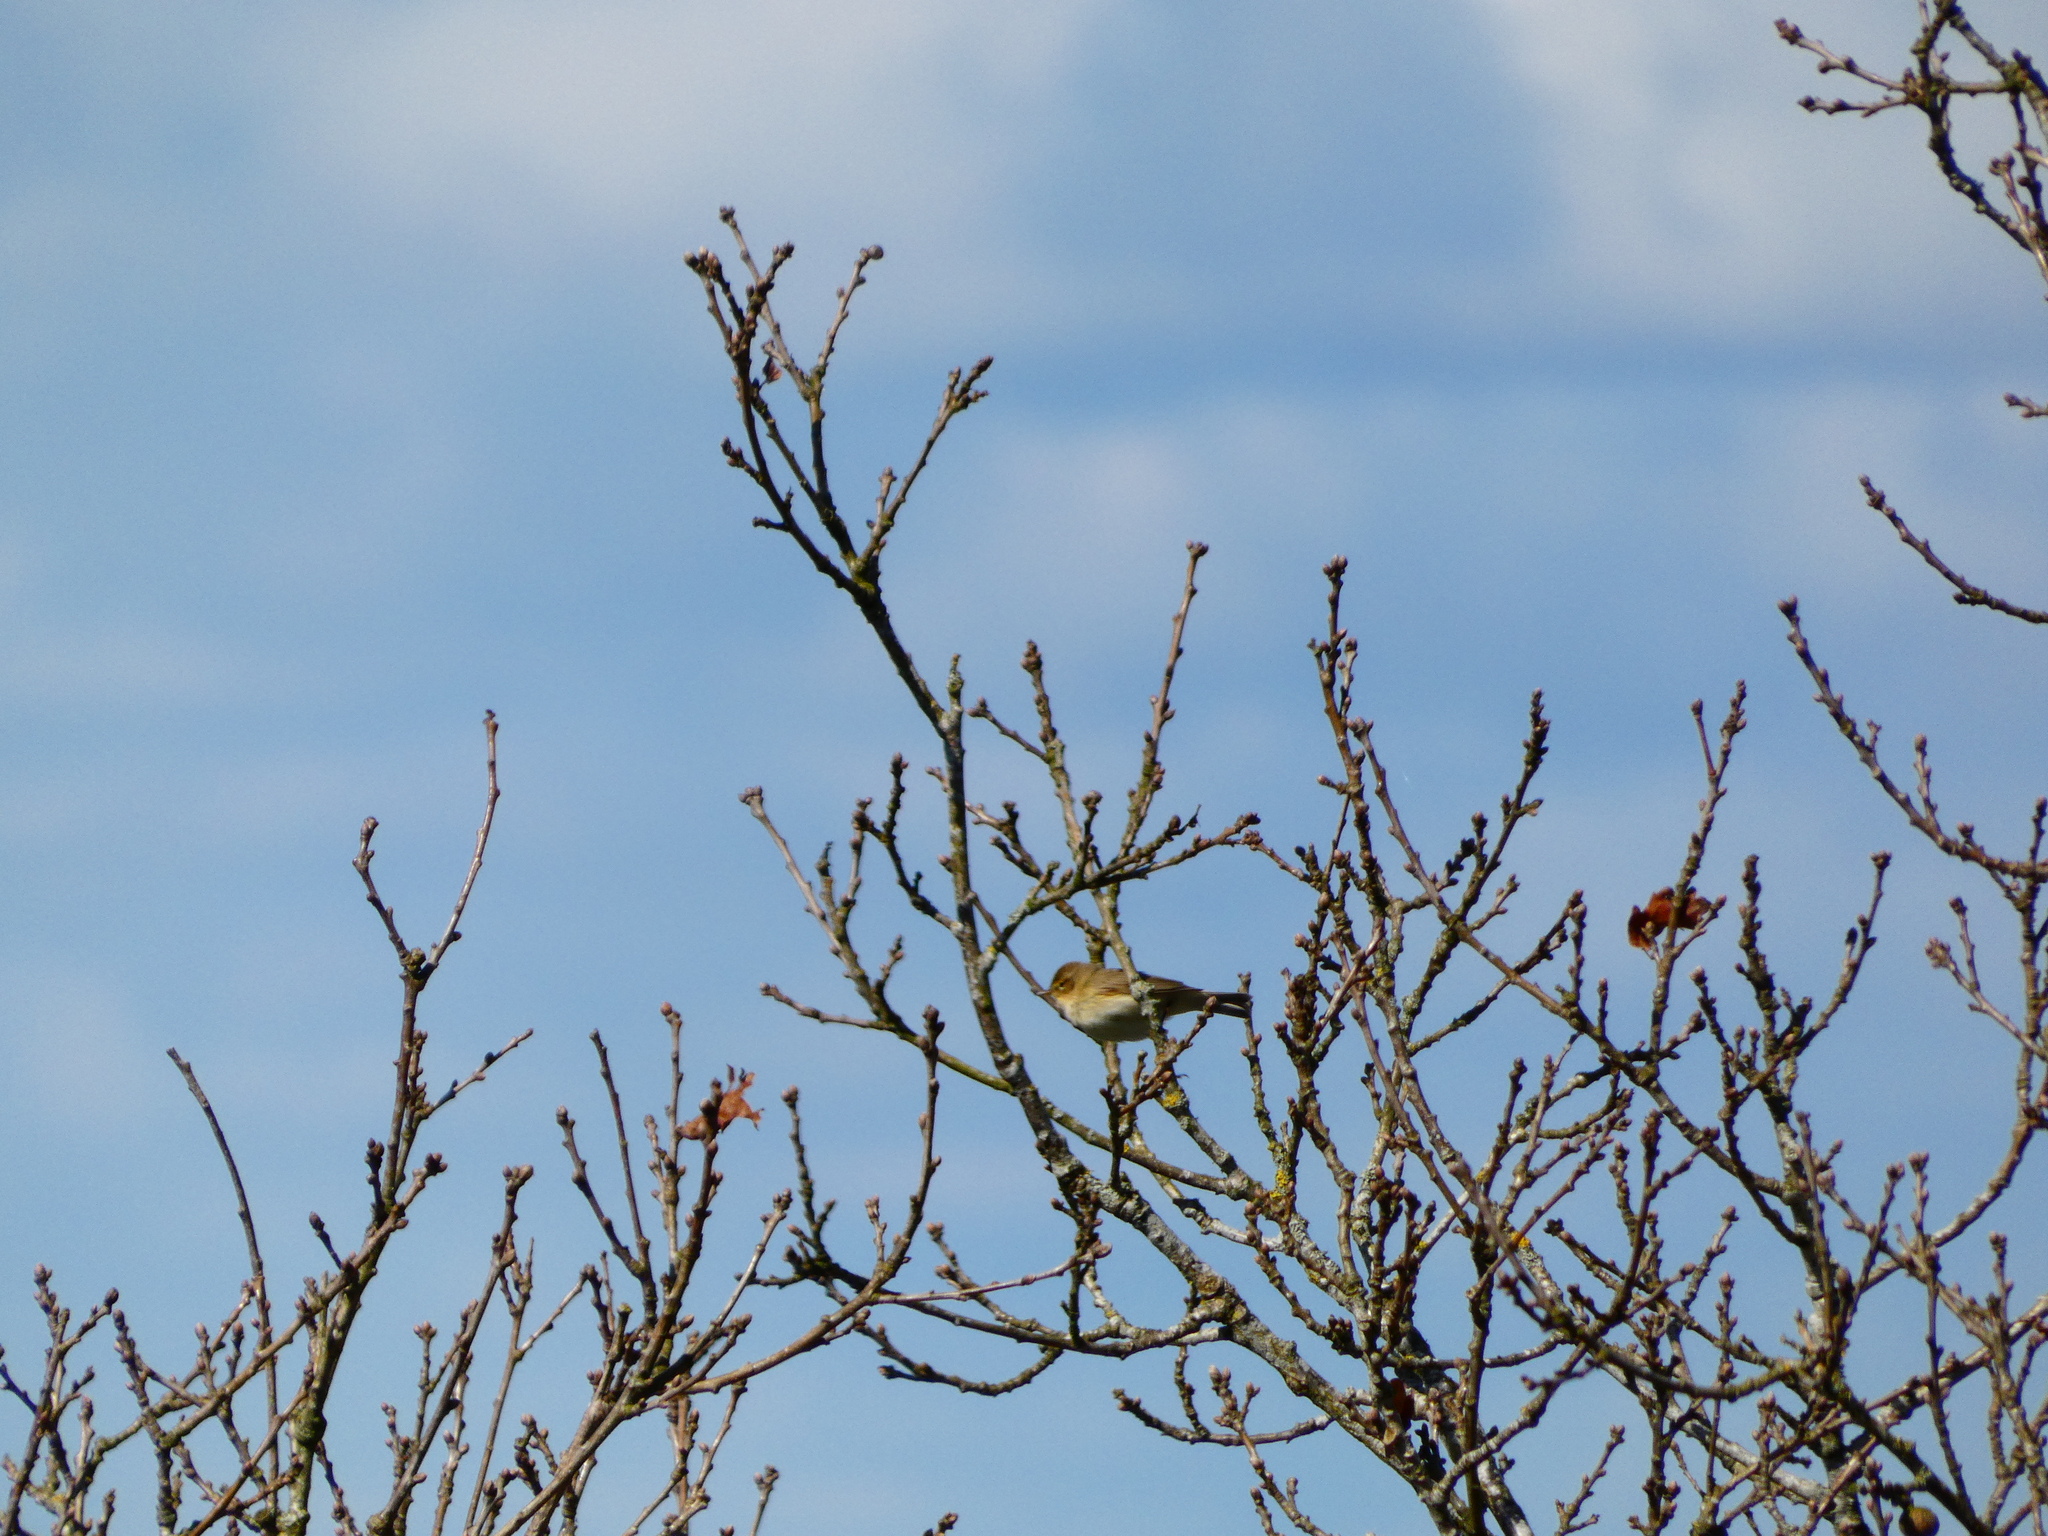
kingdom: Animalia
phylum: Chordata
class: Aves
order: Passeriformes
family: Phylloscopidae
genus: Phylloscopus
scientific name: Phylloscopus collybita
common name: Common chiffchaff
